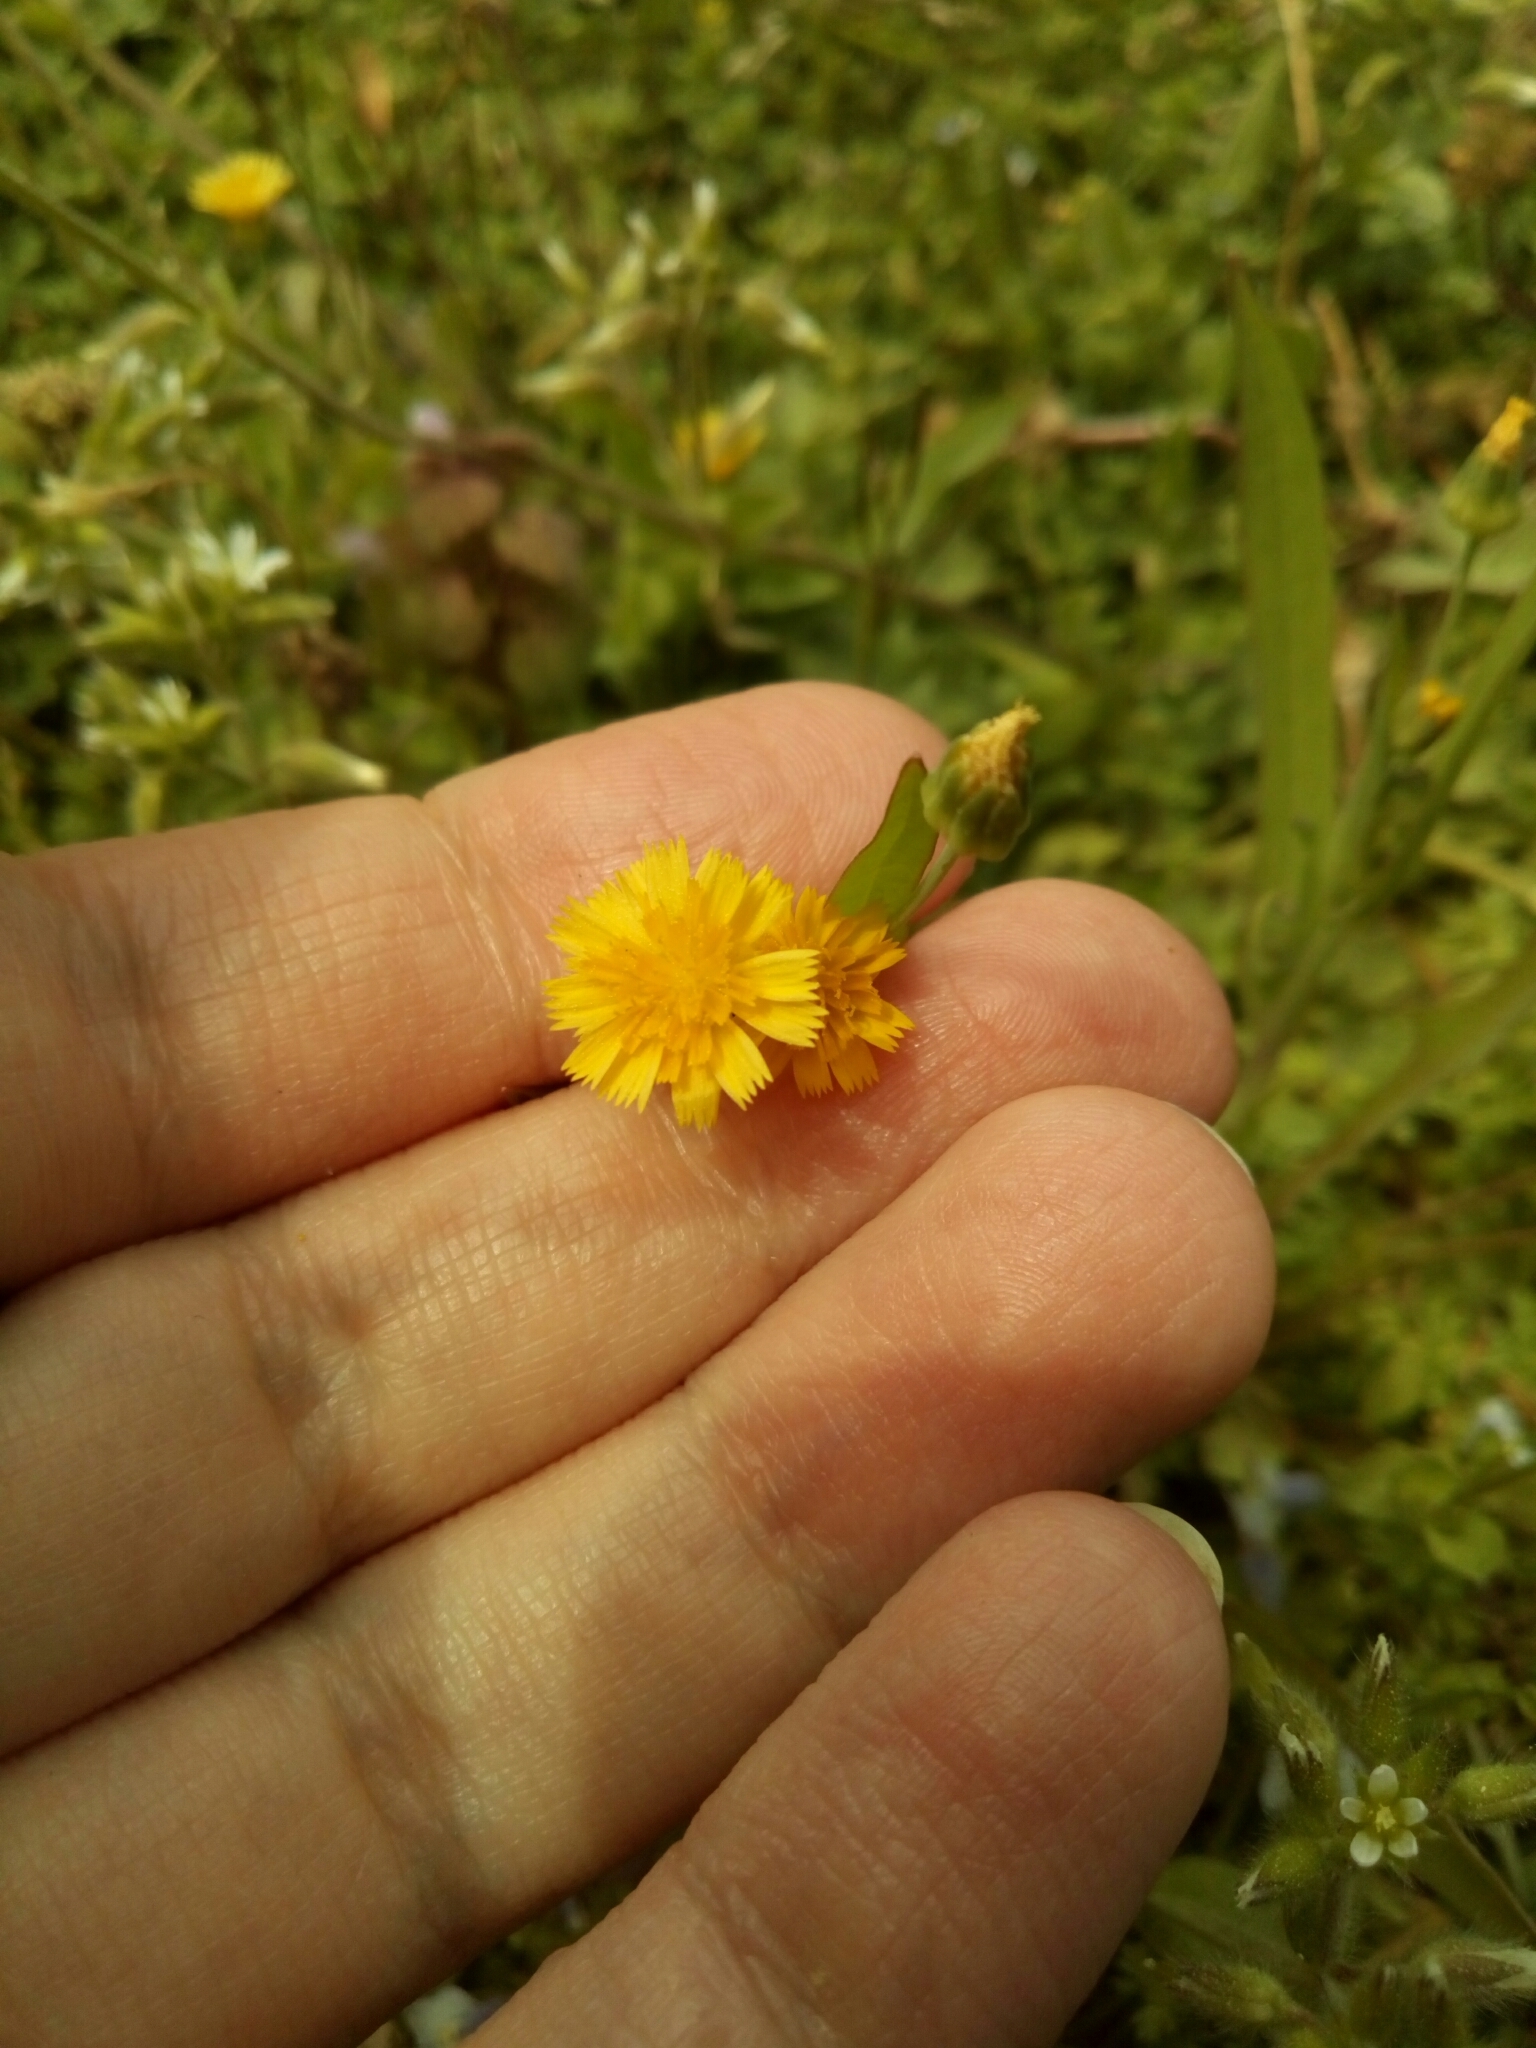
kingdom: Plantae
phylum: Tracheophyta
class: Magnoliopsida
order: Asterales
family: Asteraceae
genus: Krigia
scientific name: Krigia cespitosa
